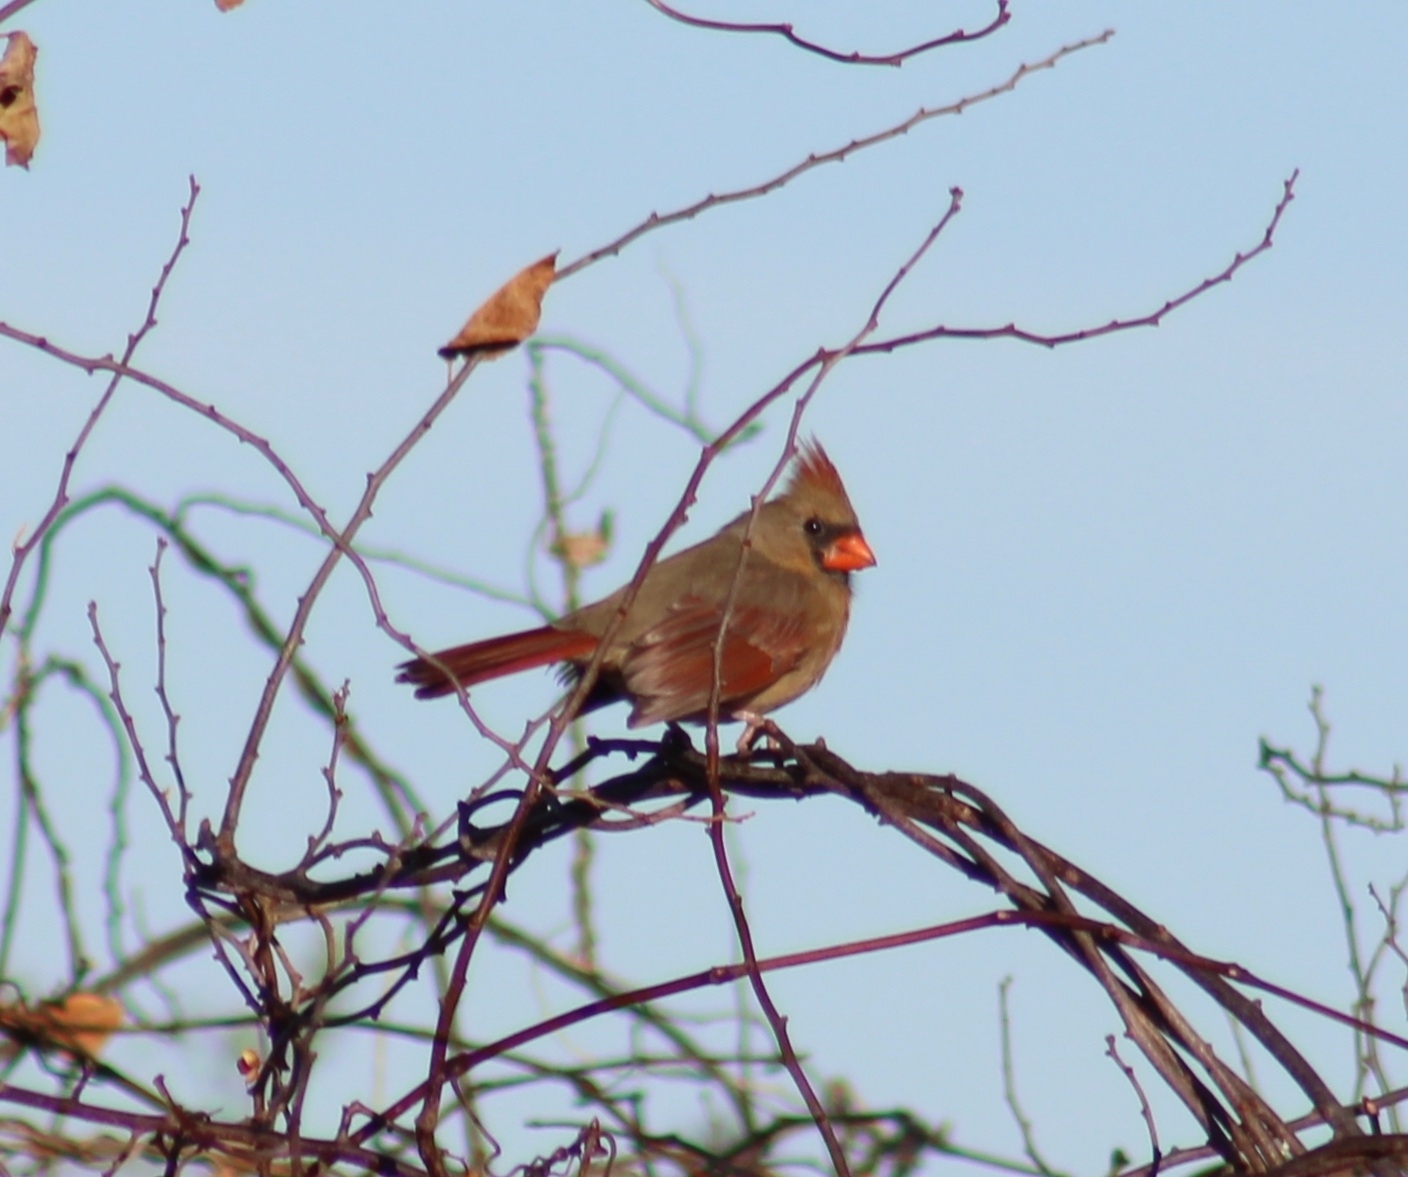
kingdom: Animalia
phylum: Chordata
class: Aves
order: Passeriformes
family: Cardinalidae
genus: Cardinalis
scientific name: Cardinalis cardinalis
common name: Northern cardinal
